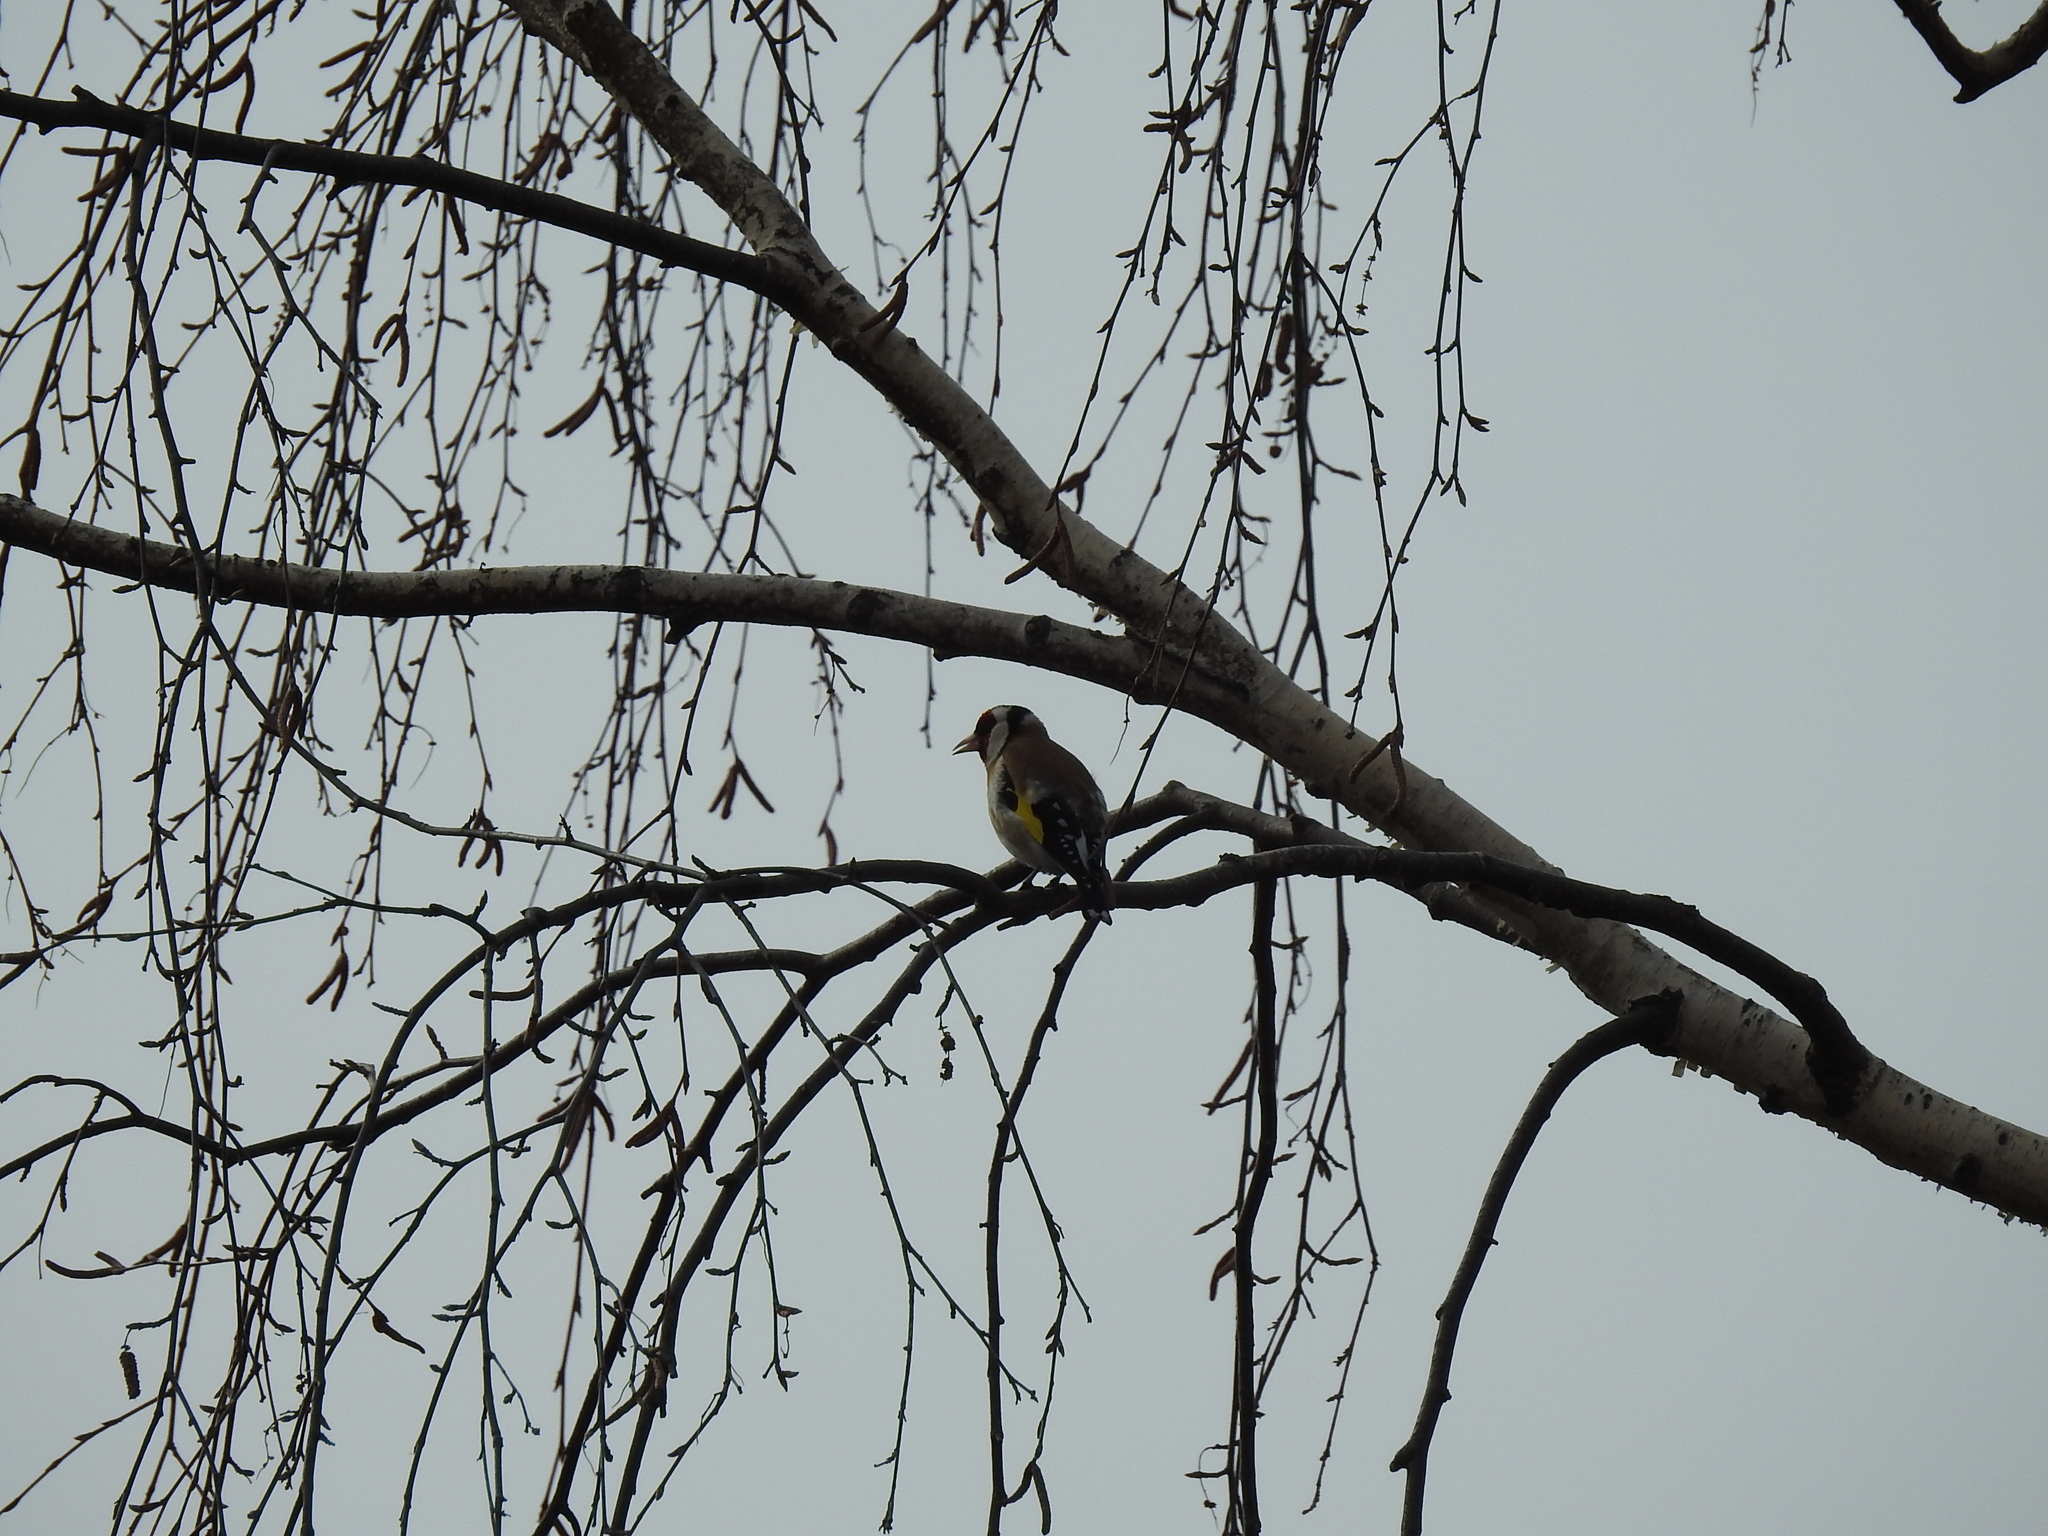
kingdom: Animalia
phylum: Chordata
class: Aves
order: Passeriformes
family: Fringillidae
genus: Carduelis
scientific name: Carduelis carduelis
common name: European goldfinch
